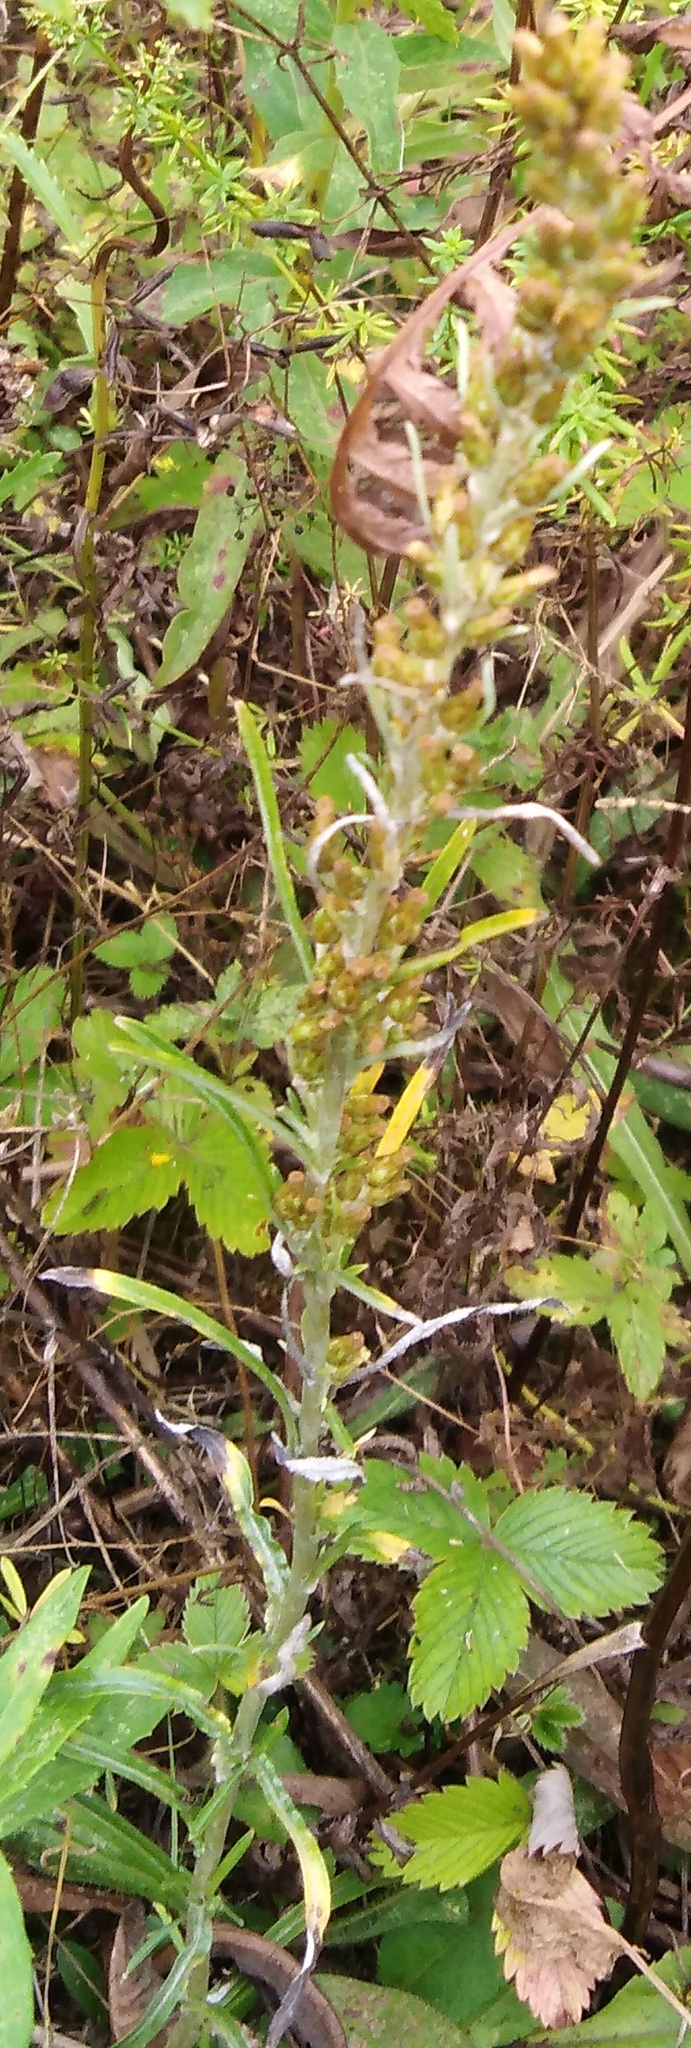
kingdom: Plantae
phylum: Tracheophyta
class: Magnoliopsida
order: Asterales
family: Asteraceae
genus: Omalotheca
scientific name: Omalotheca sylvatica
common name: Heath cudweed
